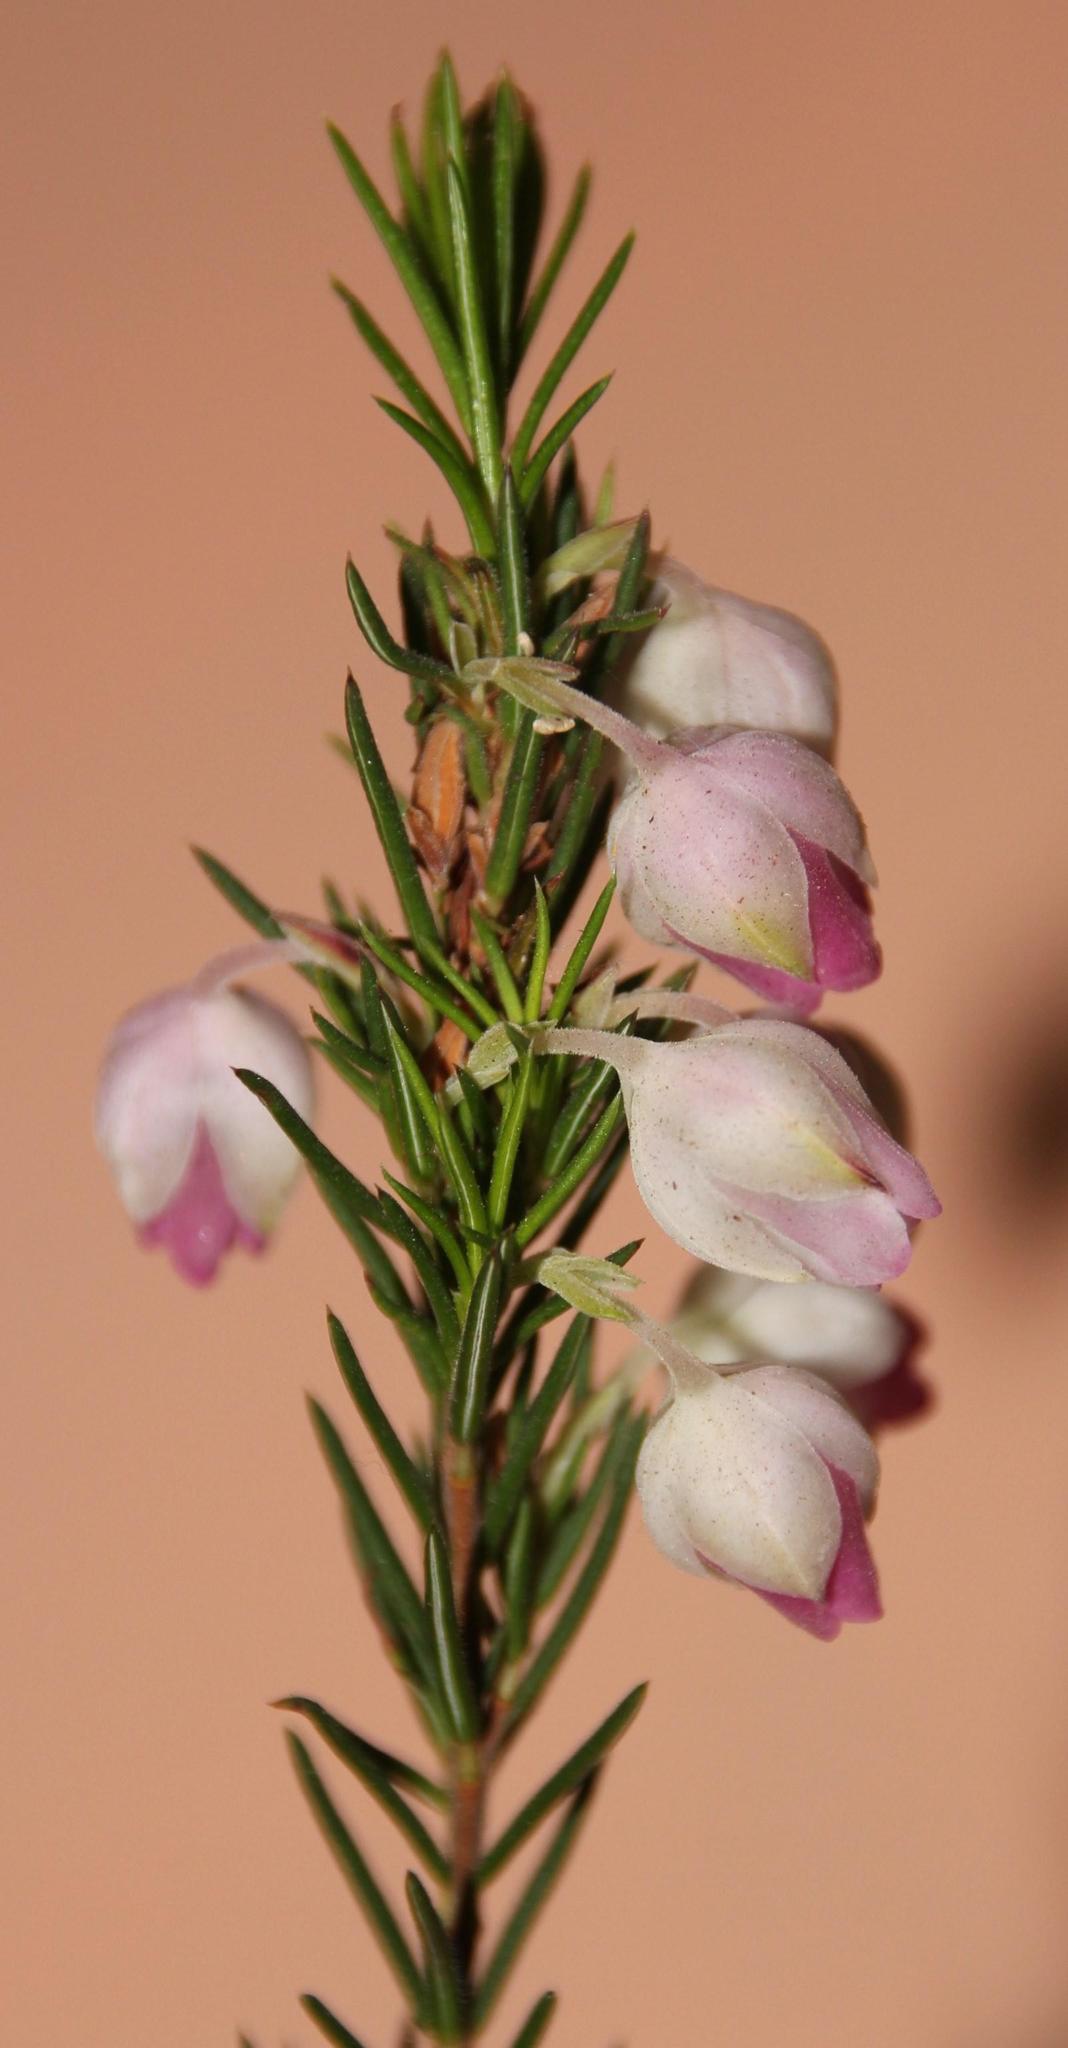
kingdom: Plantae
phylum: Tracheophyta
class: Magnoliopsida
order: Ericales
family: Ericaceae
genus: Erica
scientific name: Erica holosericea
